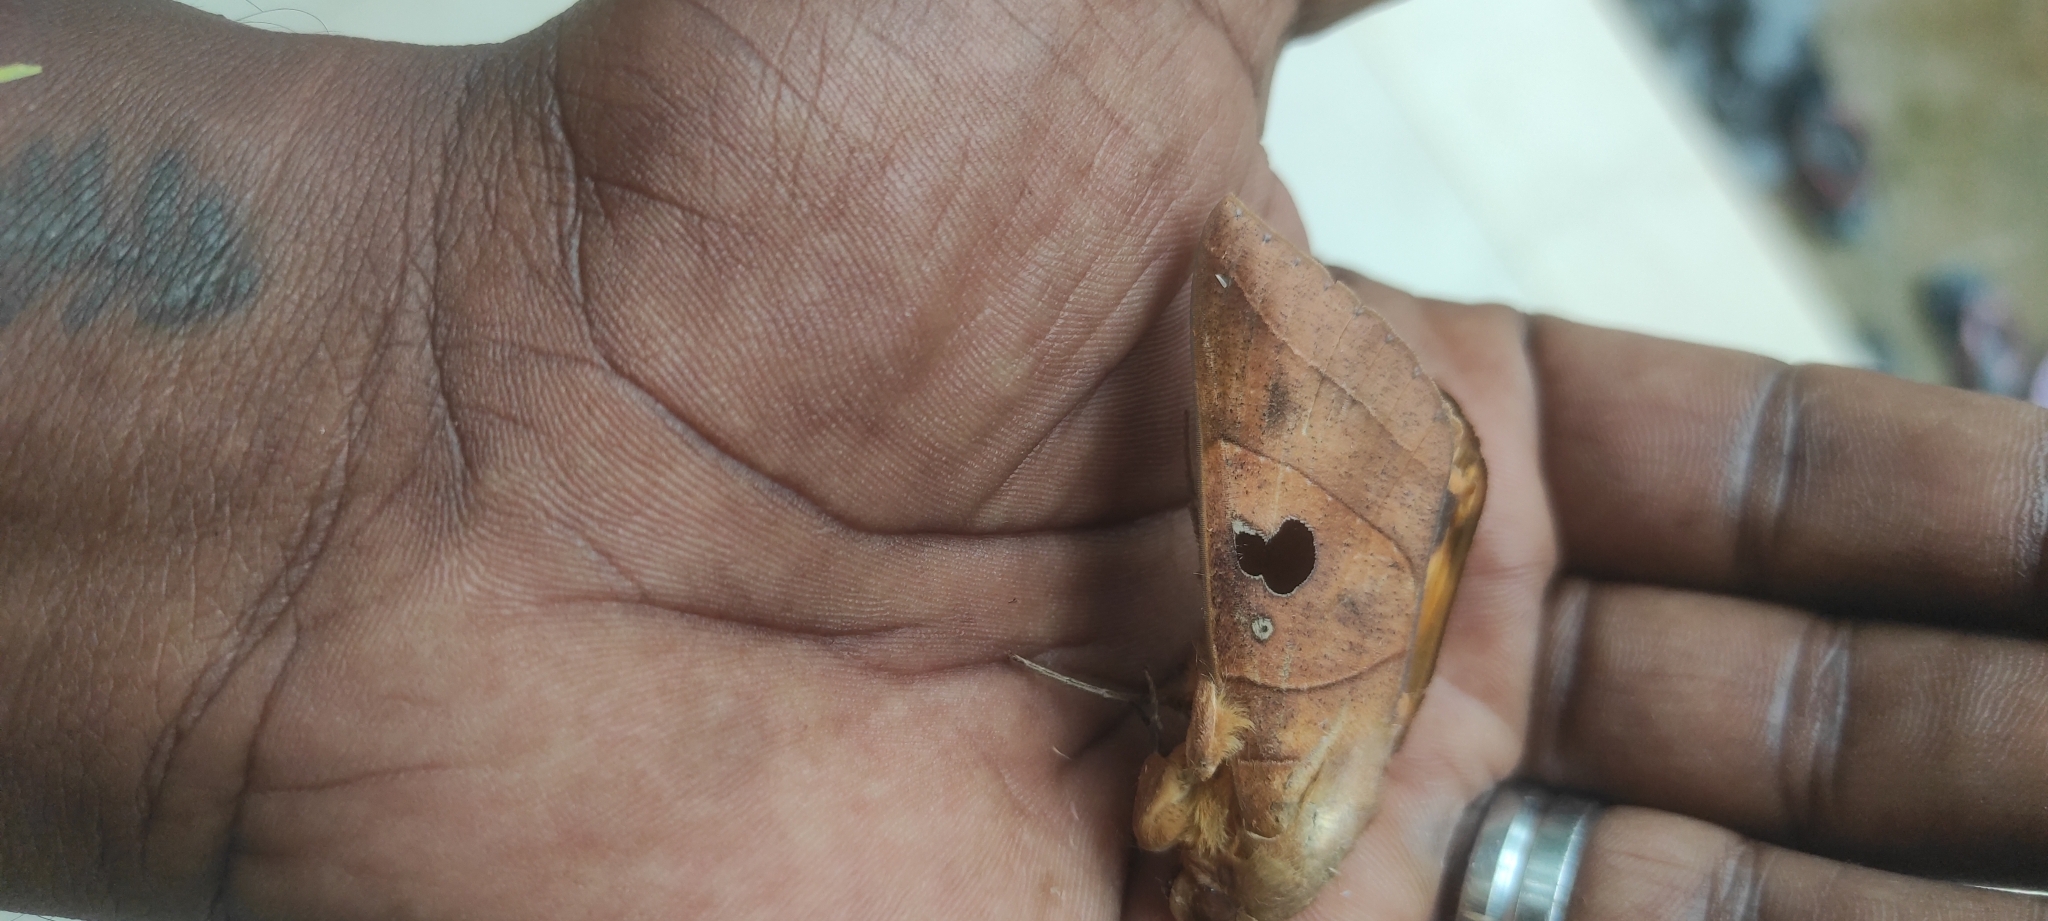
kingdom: Animalia
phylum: Arthropoda
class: Insecta
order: Lepidoptera
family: Erebidae
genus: Thyas
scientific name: Thyas coronata
